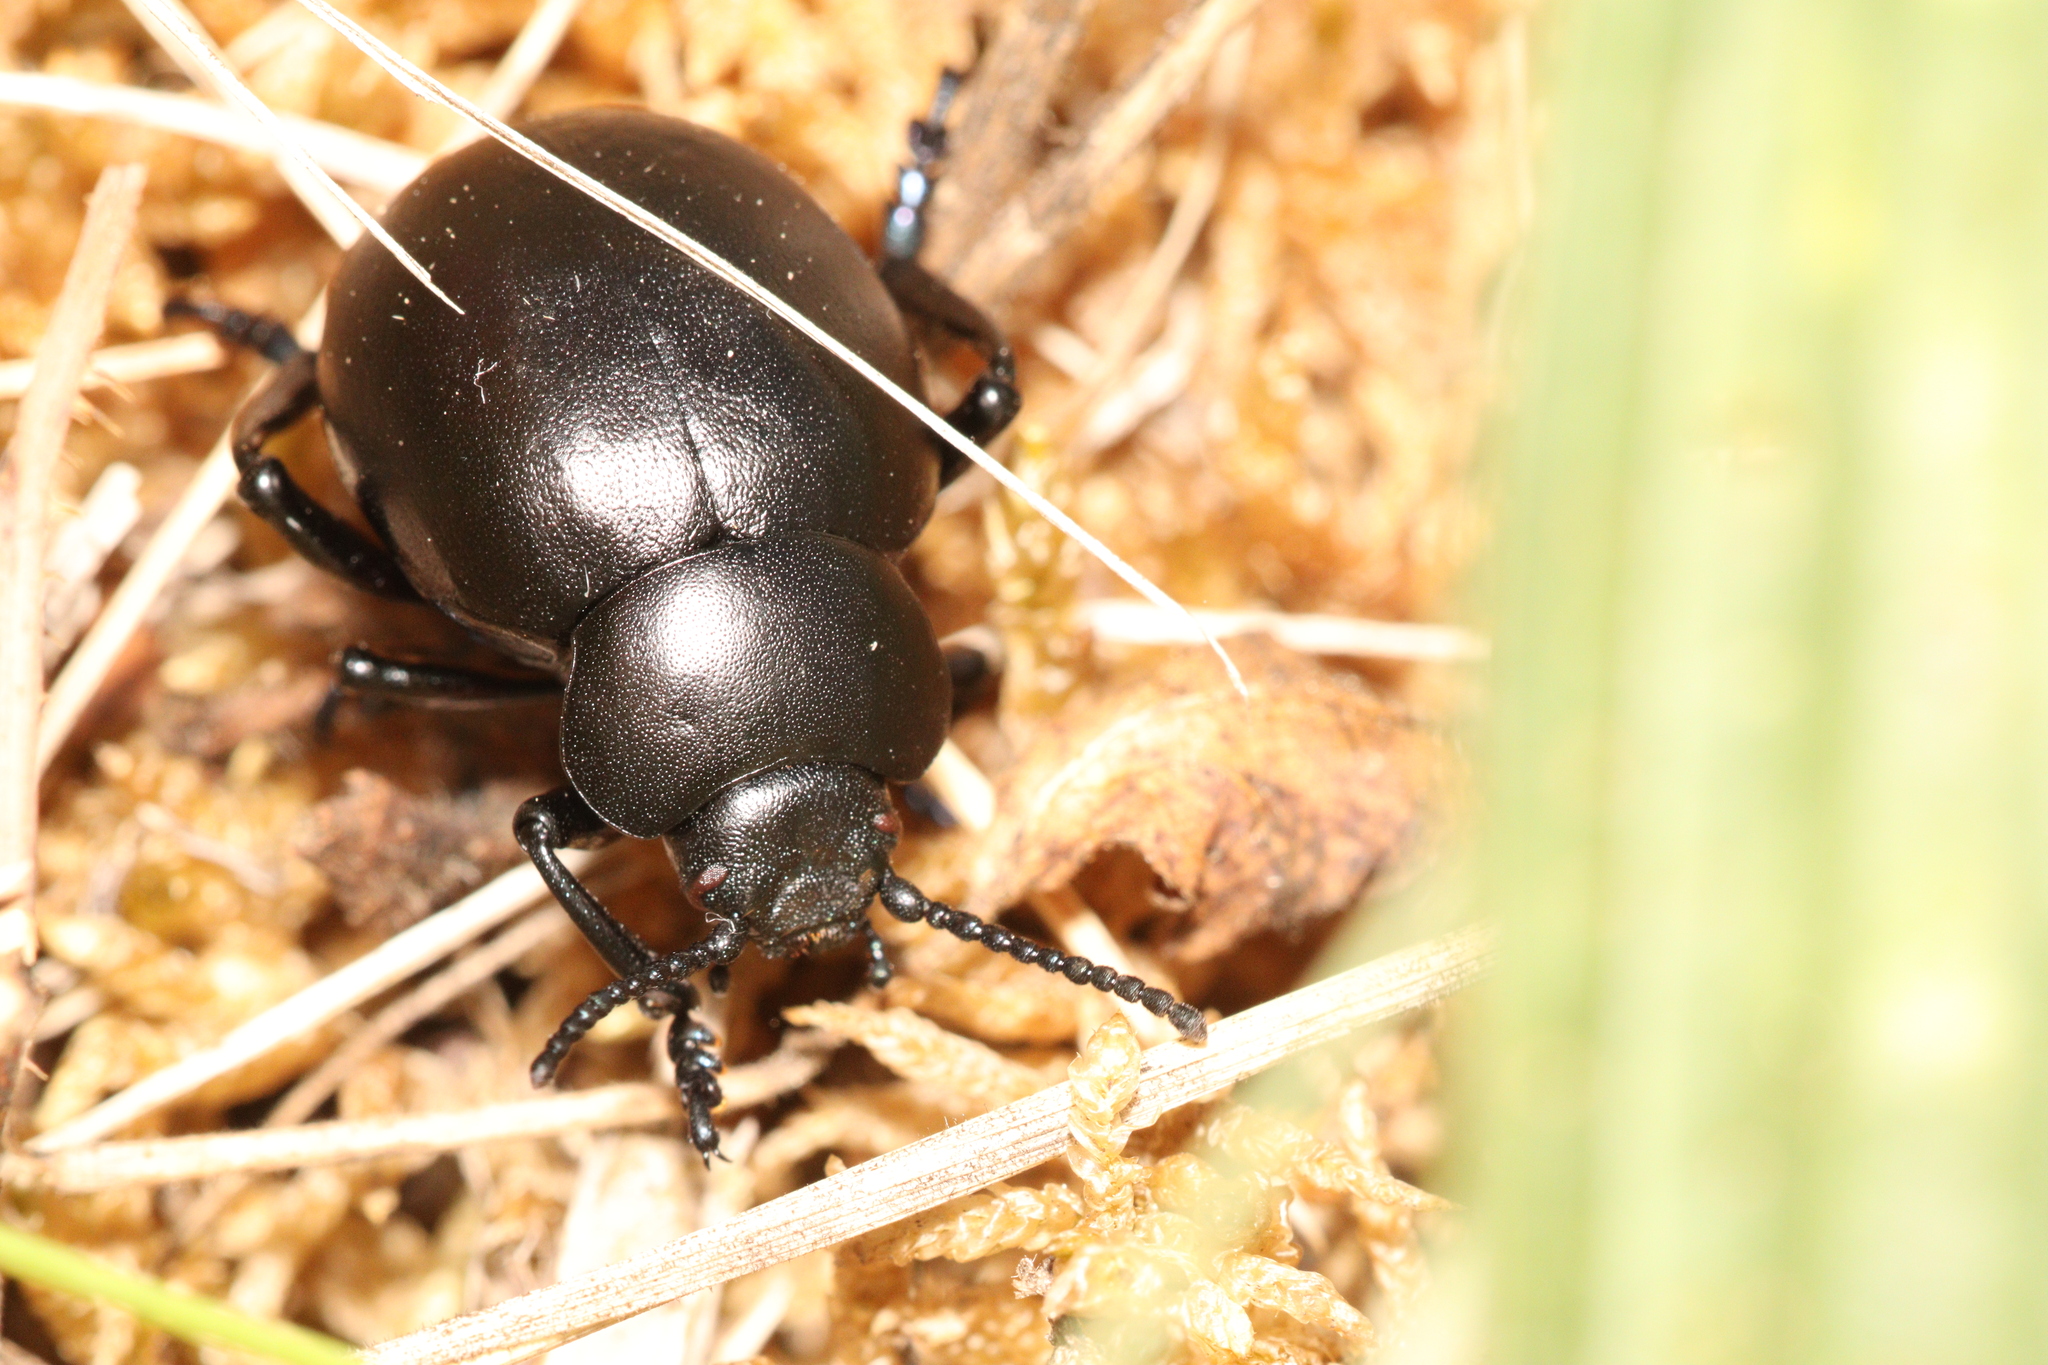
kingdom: Animalia
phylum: Arthropoda
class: Insecta
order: Coleoptera
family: Chrysomelidae
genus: Timarcha
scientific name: Timarcha tenebricosa
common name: Bloody-nosed beetle
